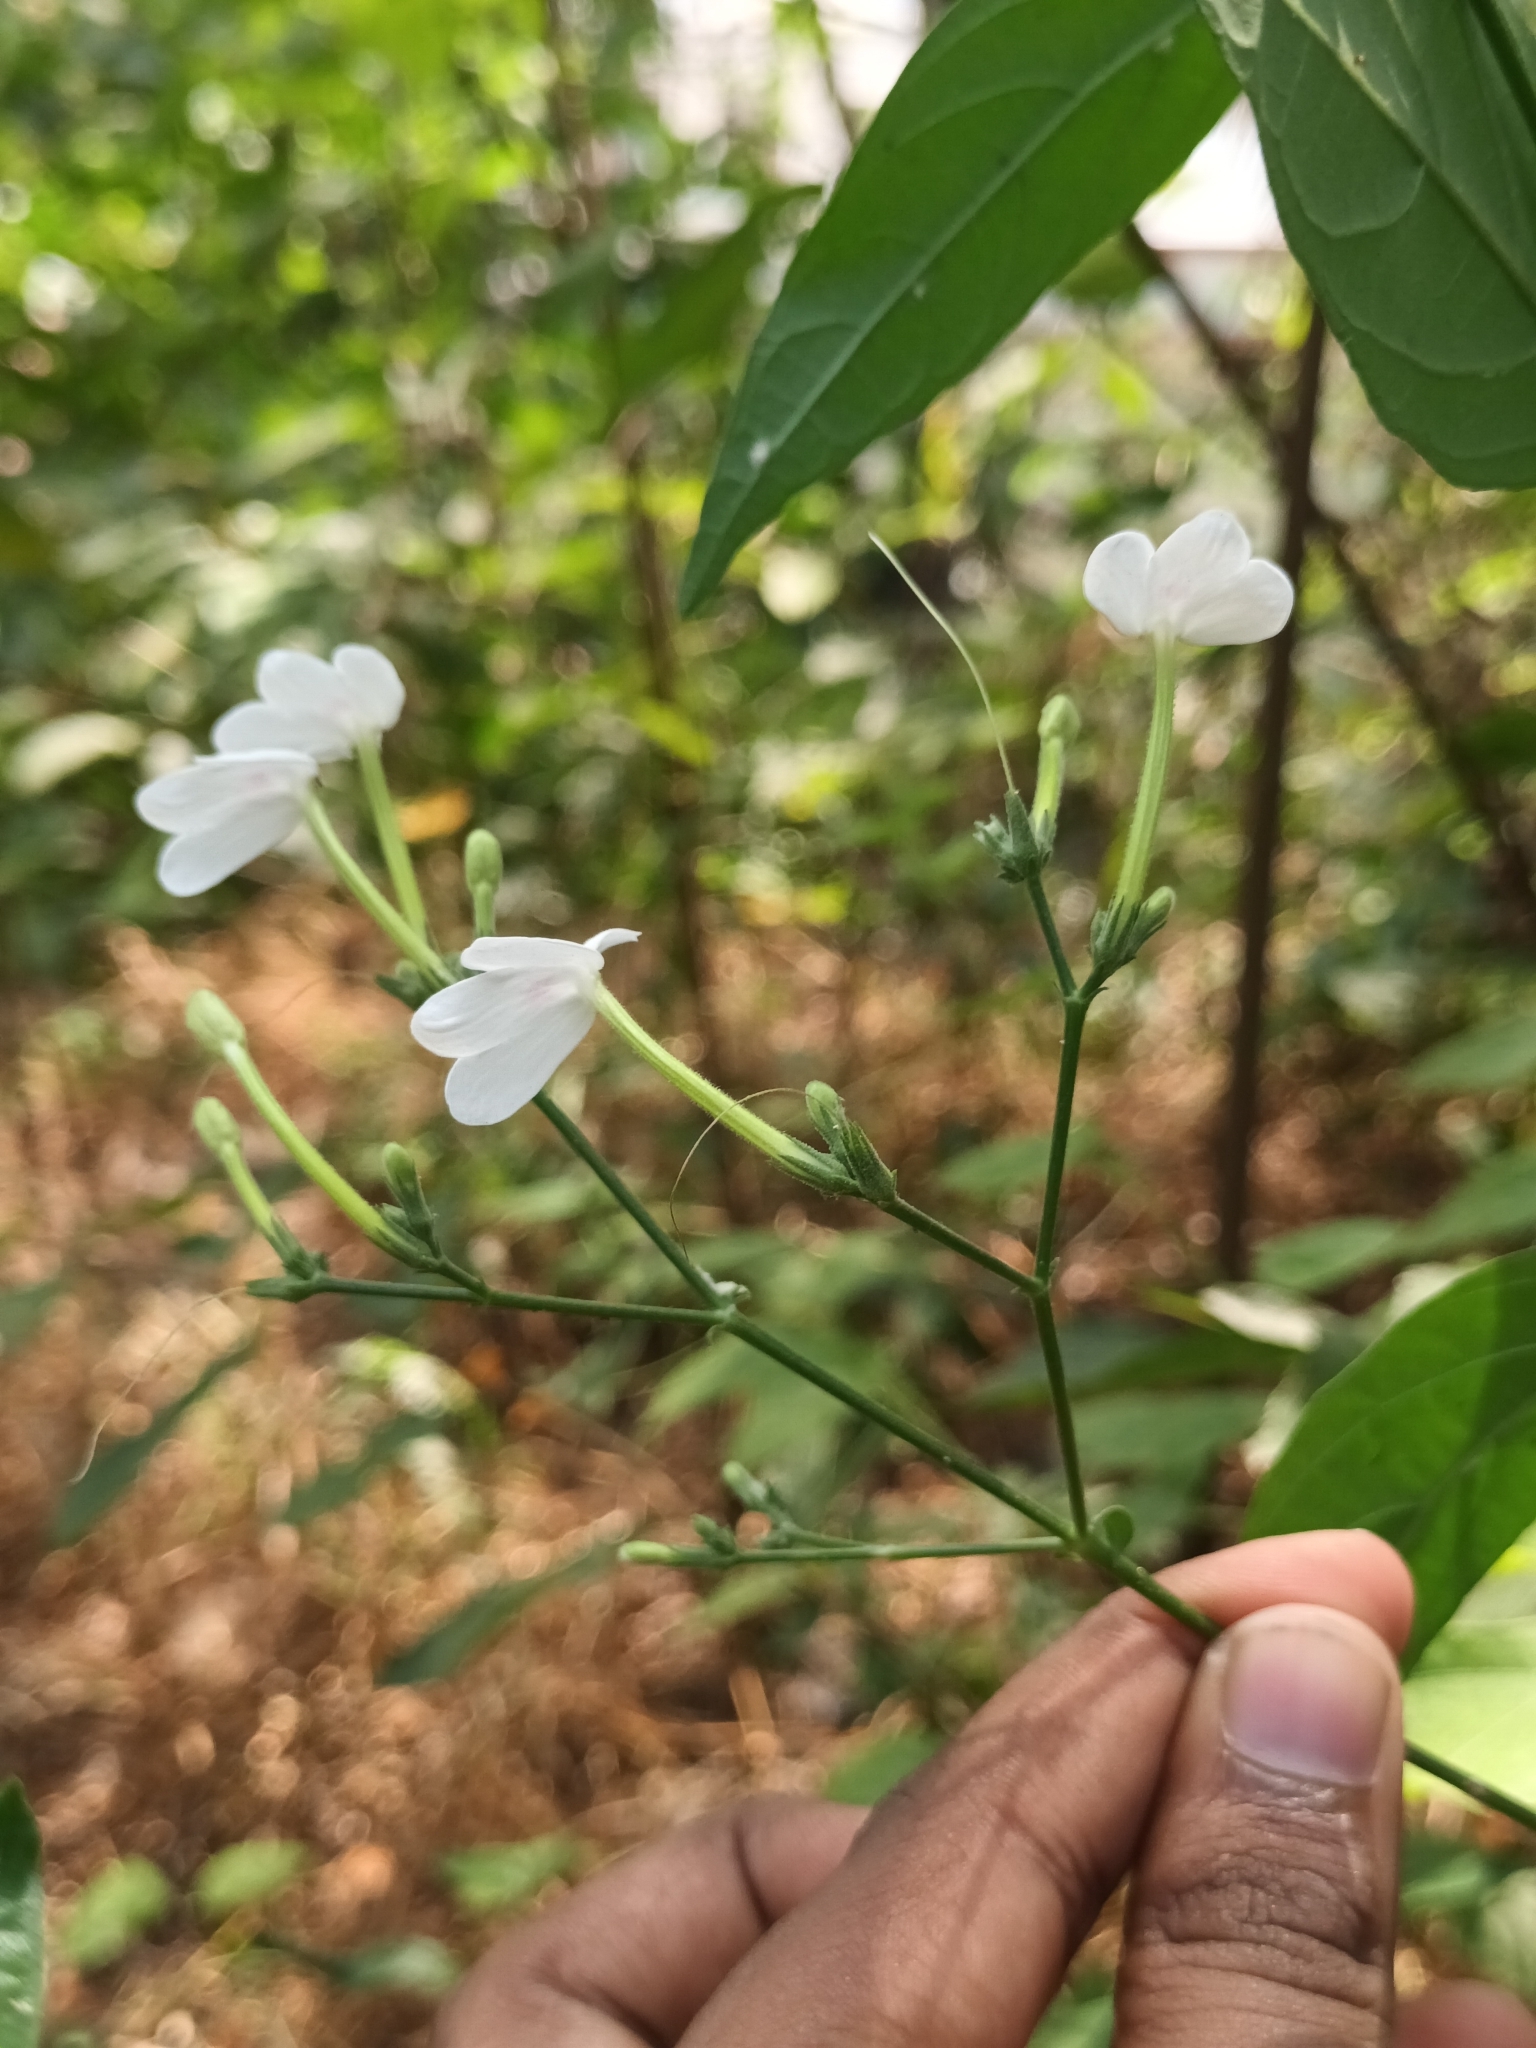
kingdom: Plantae
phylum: Tracheophyta
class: Magnoliopsida
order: Lamiales
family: Acanthaceae
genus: Rhinacanthus
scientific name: Rhinacanthus nasutus
